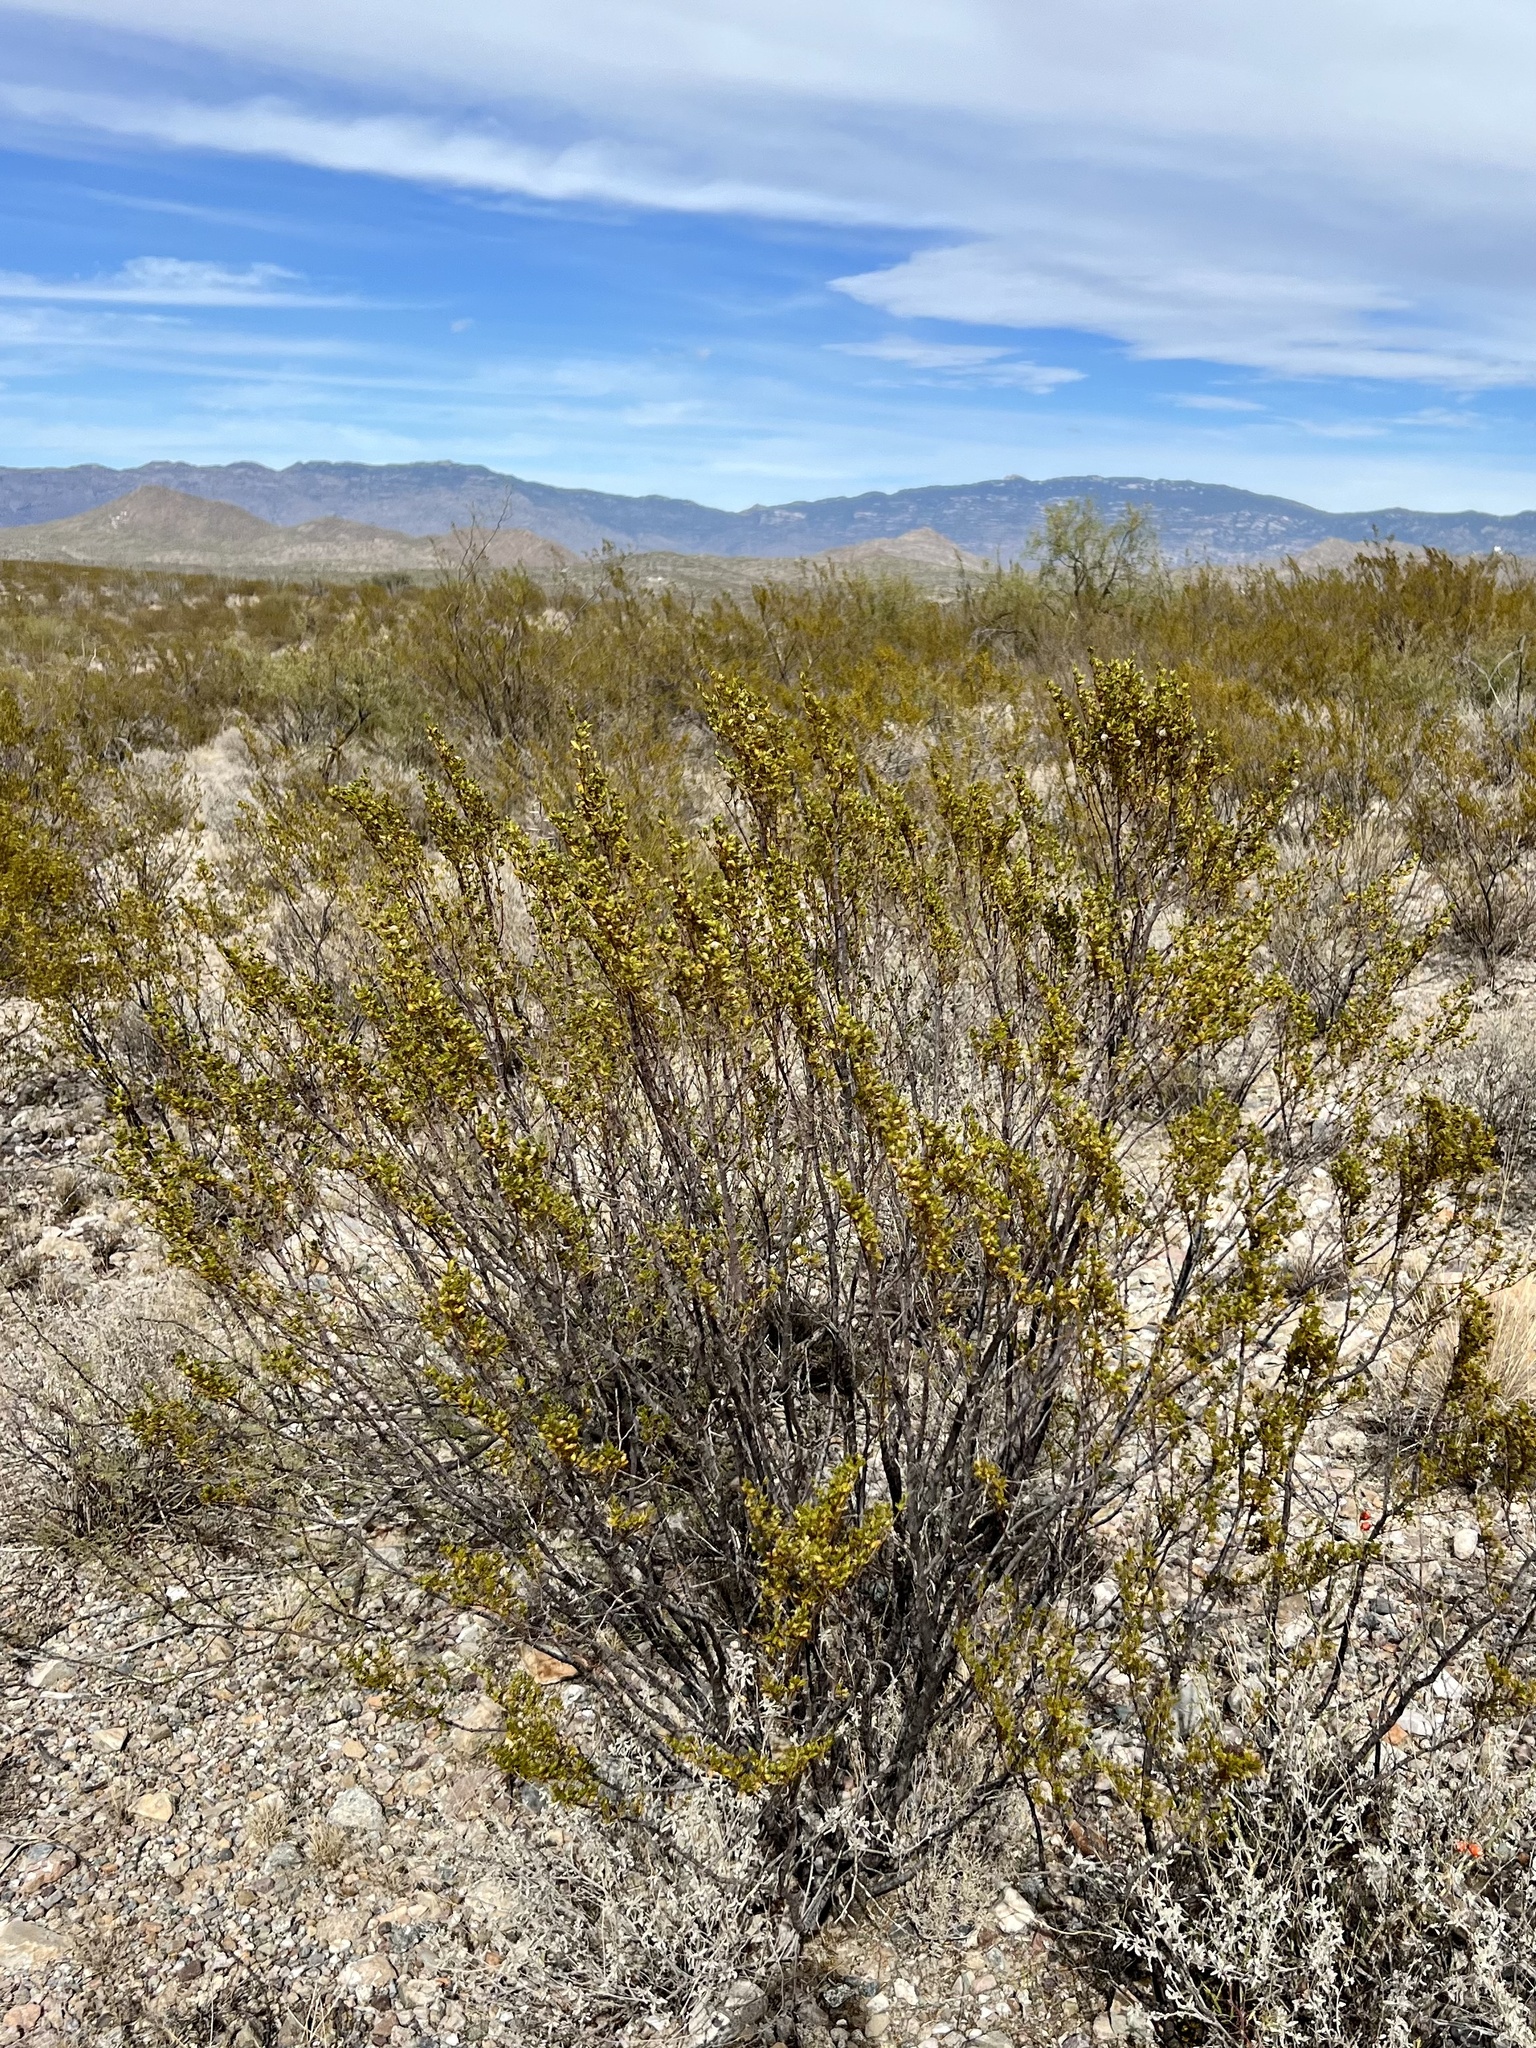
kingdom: Plantae
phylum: Tracheophyta
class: Magnoliopsida
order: Zygophyllales
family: Zygophyllaceae
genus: Larrea
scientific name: Larrea tridentata
